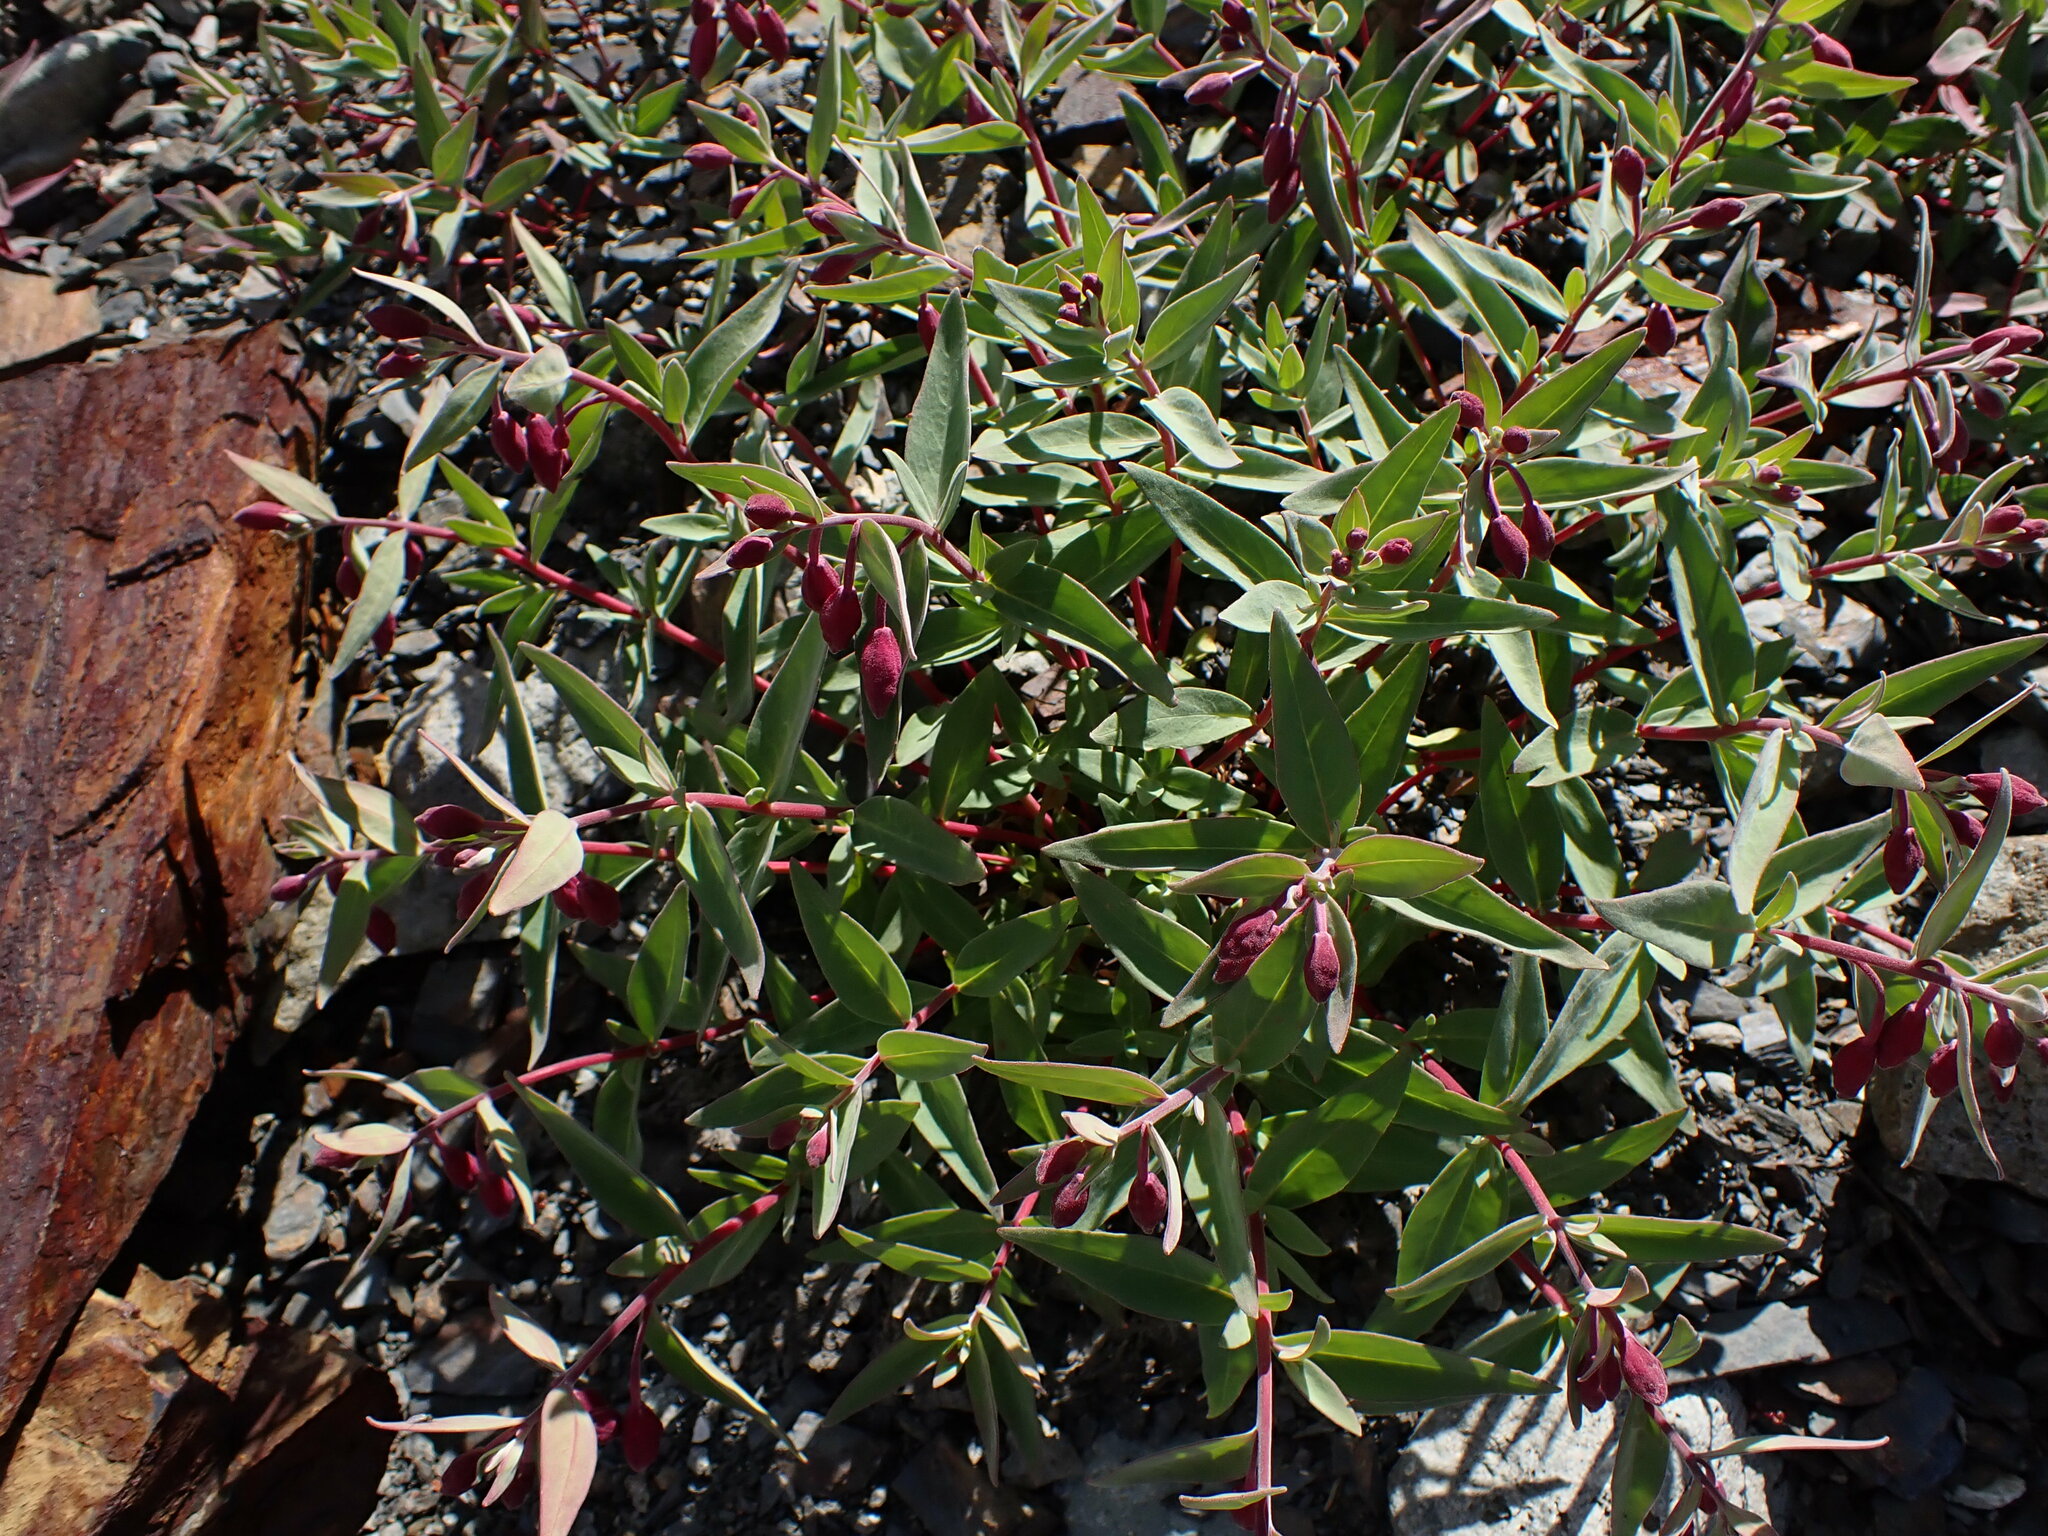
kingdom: Plantae
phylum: Tracheophyta
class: Magnoliopsida
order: Myrtales
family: Onagraceae
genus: Chamaenerion
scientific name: Chamaenerion latifolium
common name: Dwarf fireweed
